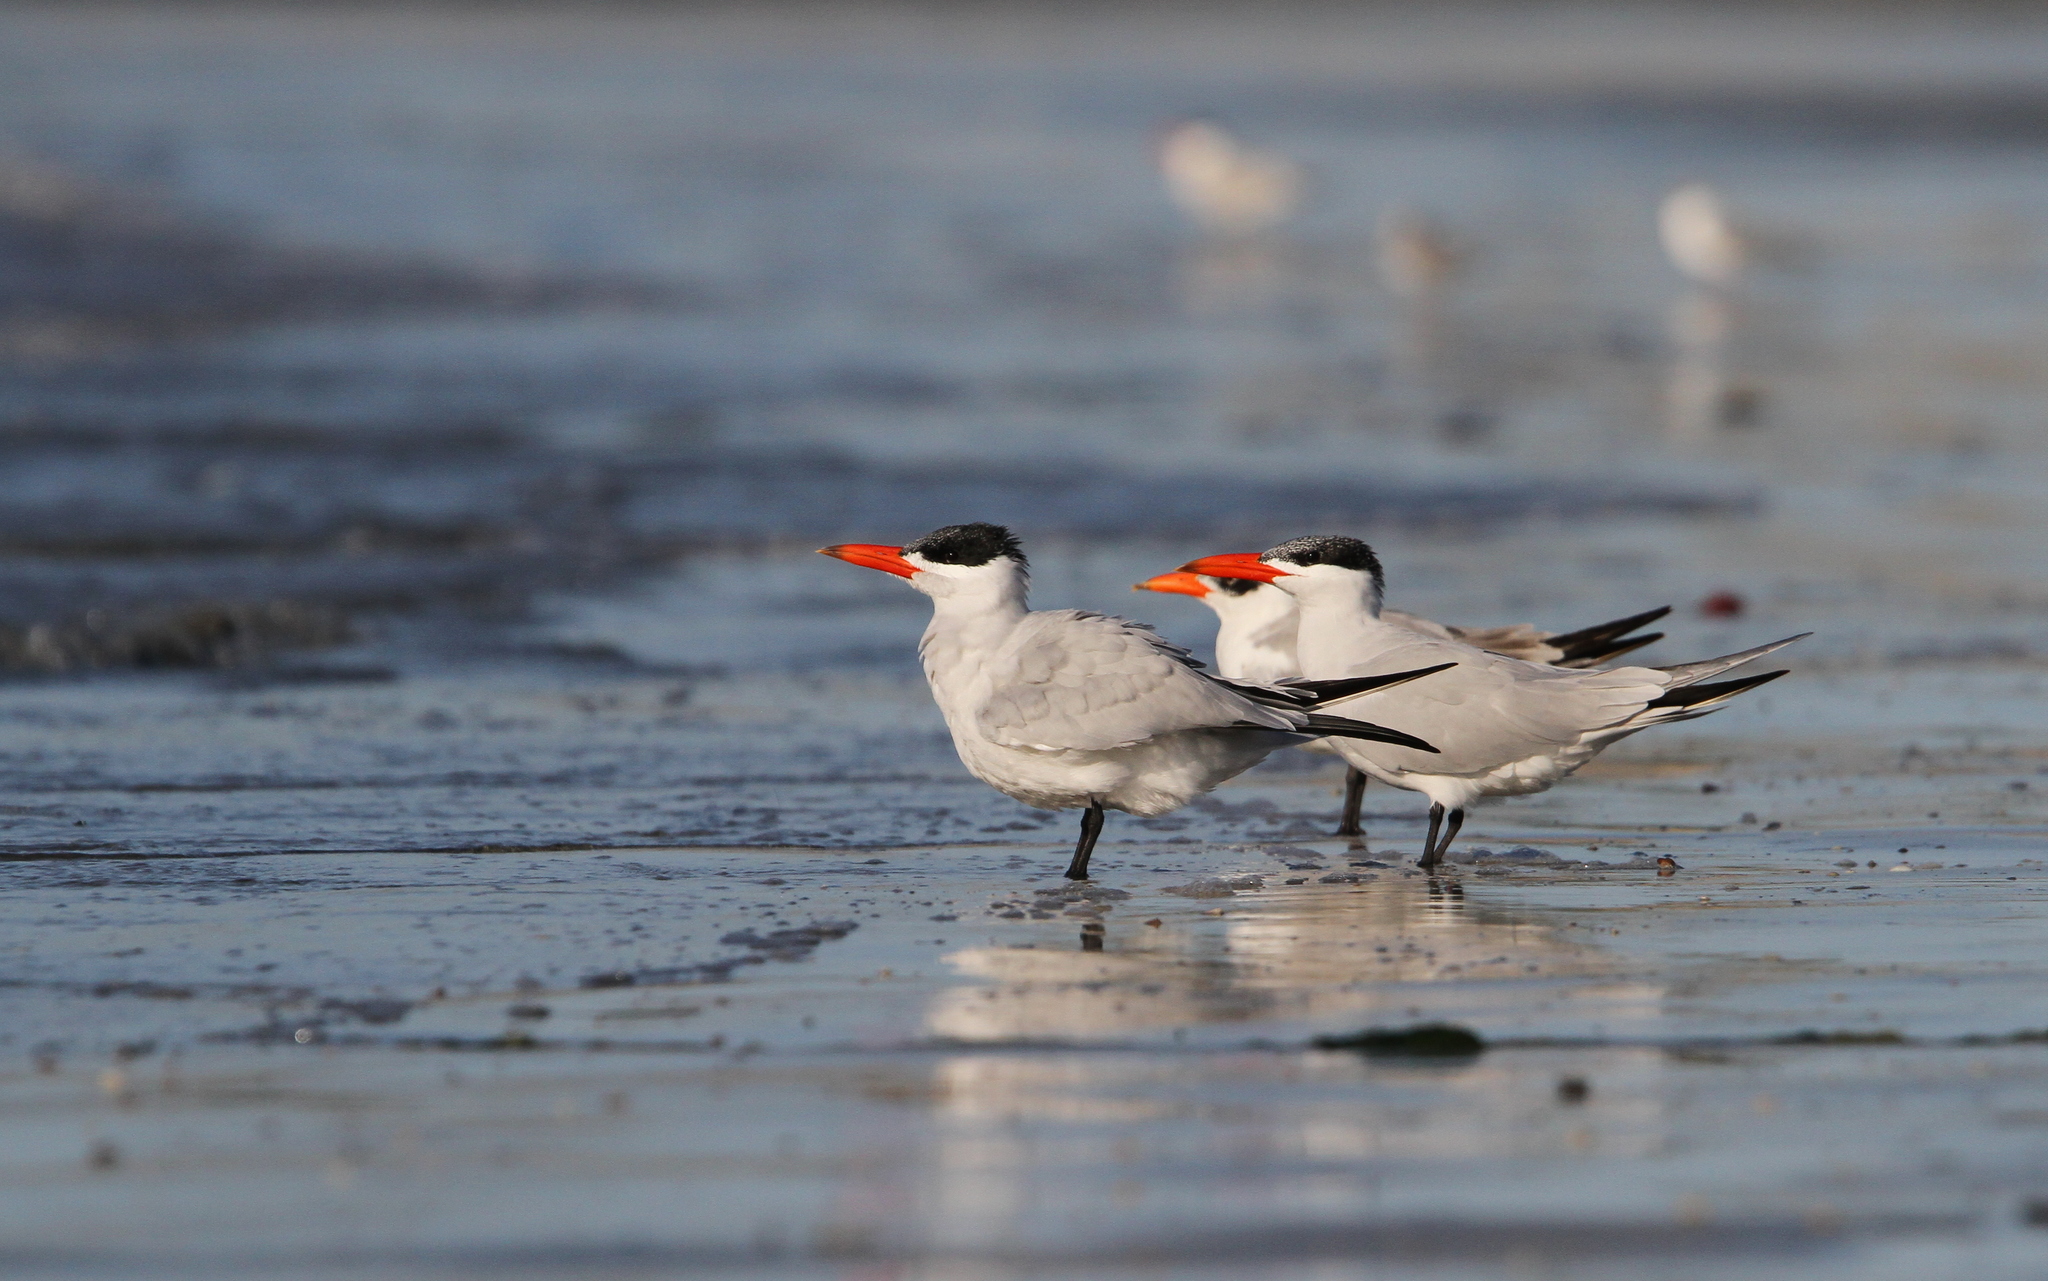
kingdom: Animalia
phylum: Chordata
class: Aves
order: Charadriiformes
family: Laridae
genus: Hydroprogne
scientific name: Hydroprogne caspia
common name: Caspian tern
